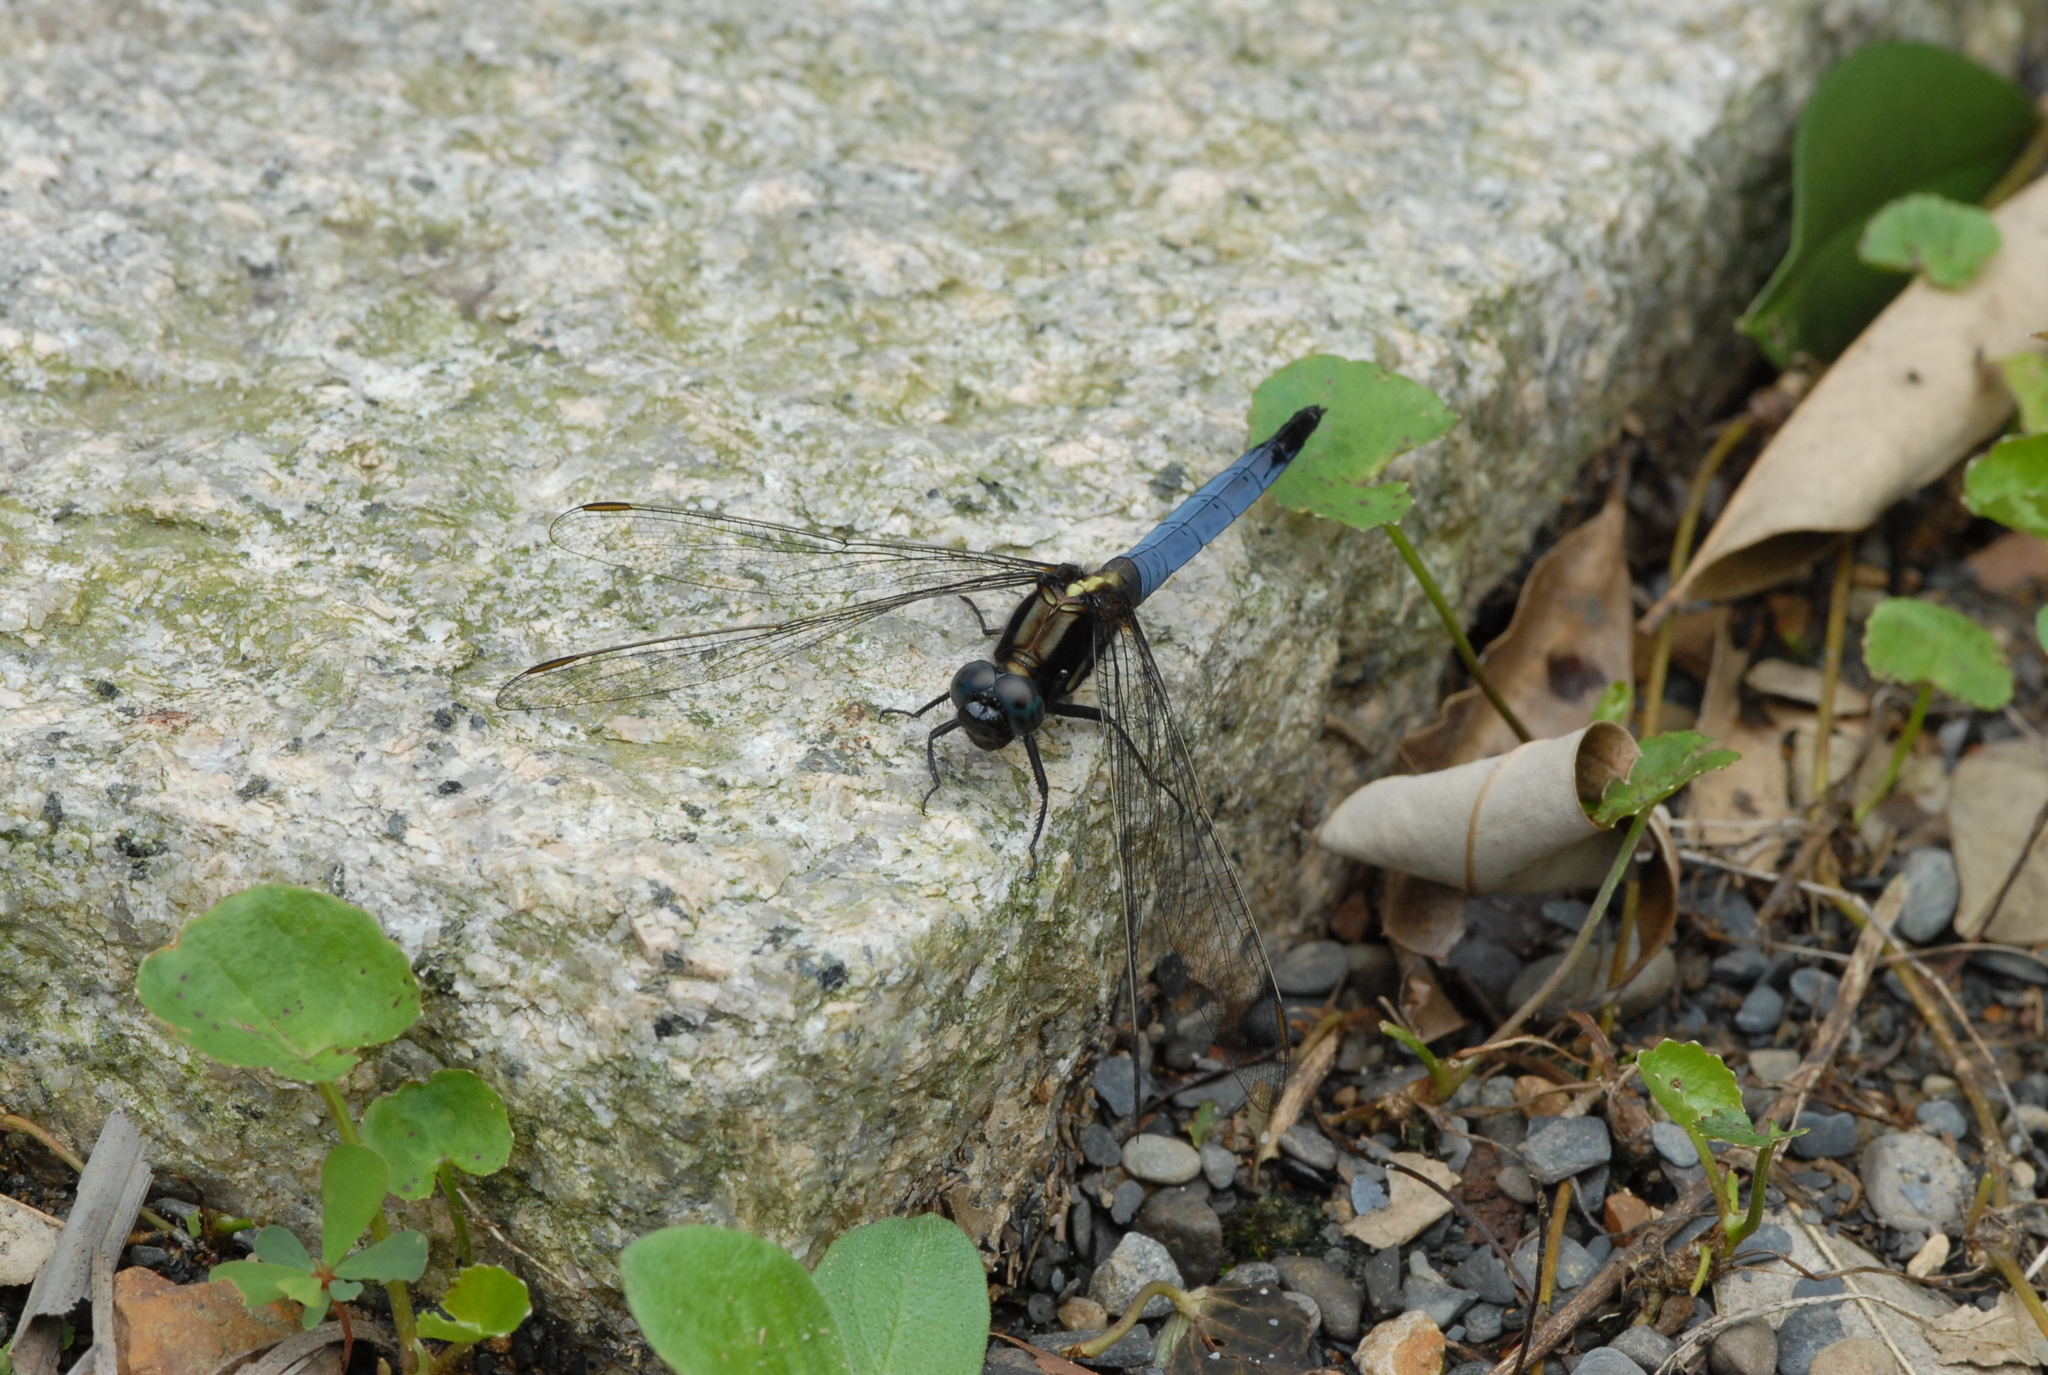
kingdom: Animalia
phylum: Arthropoda
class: Insecta
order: Odonata
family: Libellulidae
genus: Orthetrum
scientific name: Orthetrum glaucum
